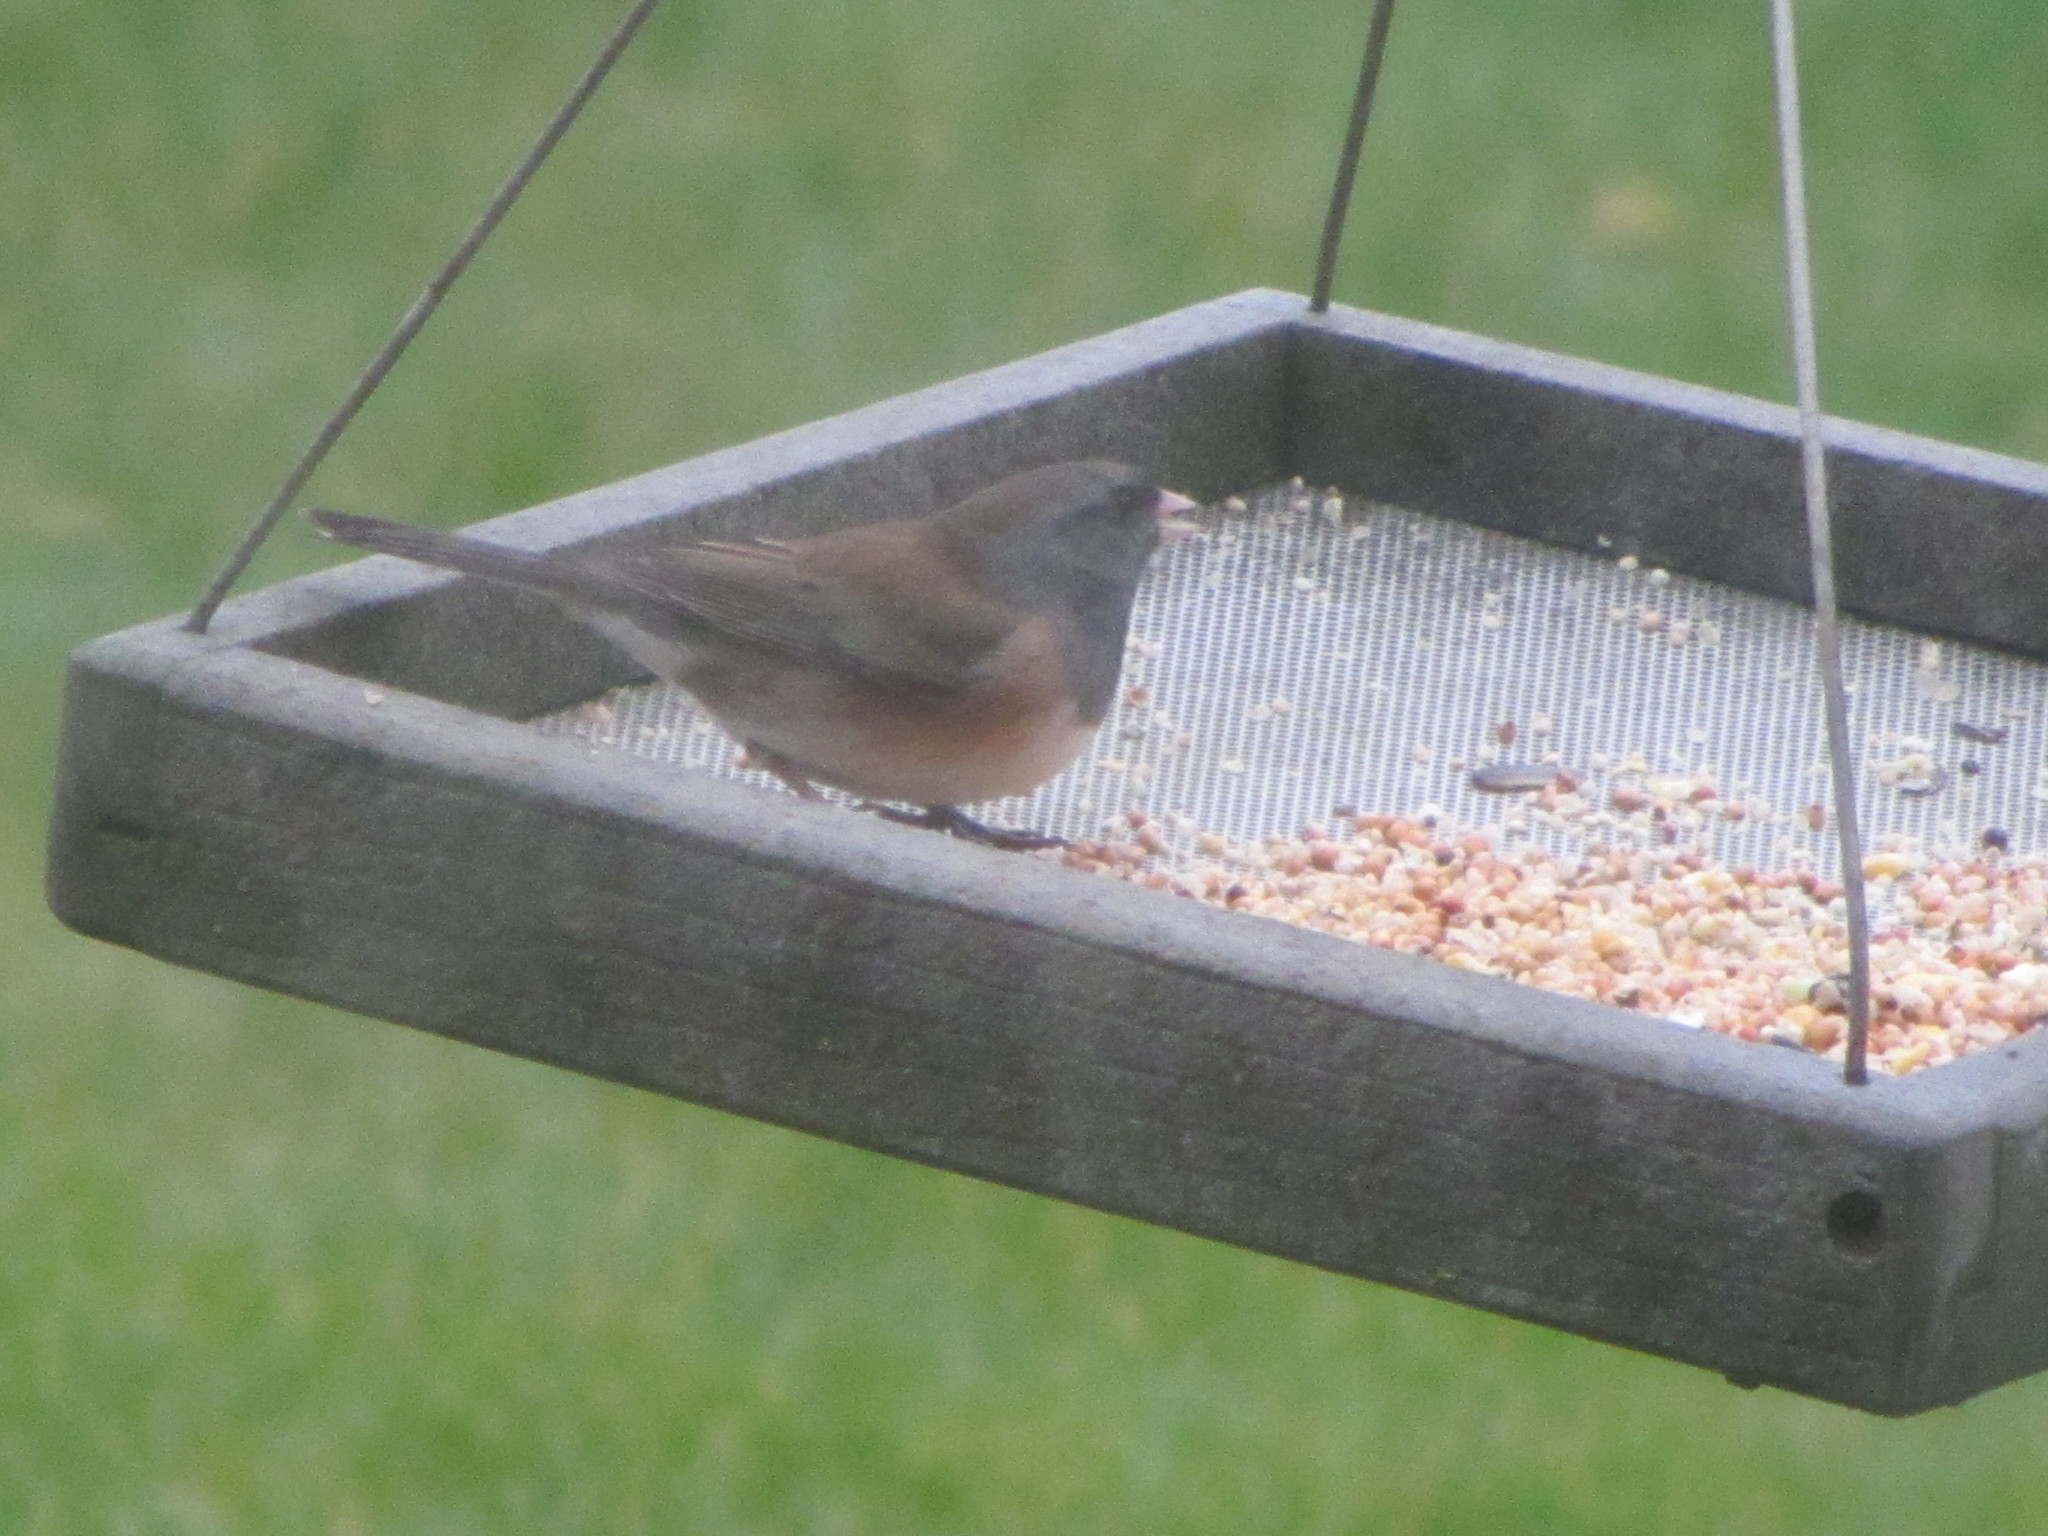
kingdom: Animalia
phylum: Chordata
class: Aves
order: Passeriformes
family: Passerellidae
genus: Junco
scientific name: Junco hyemalis
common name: Dark-eyed junco
